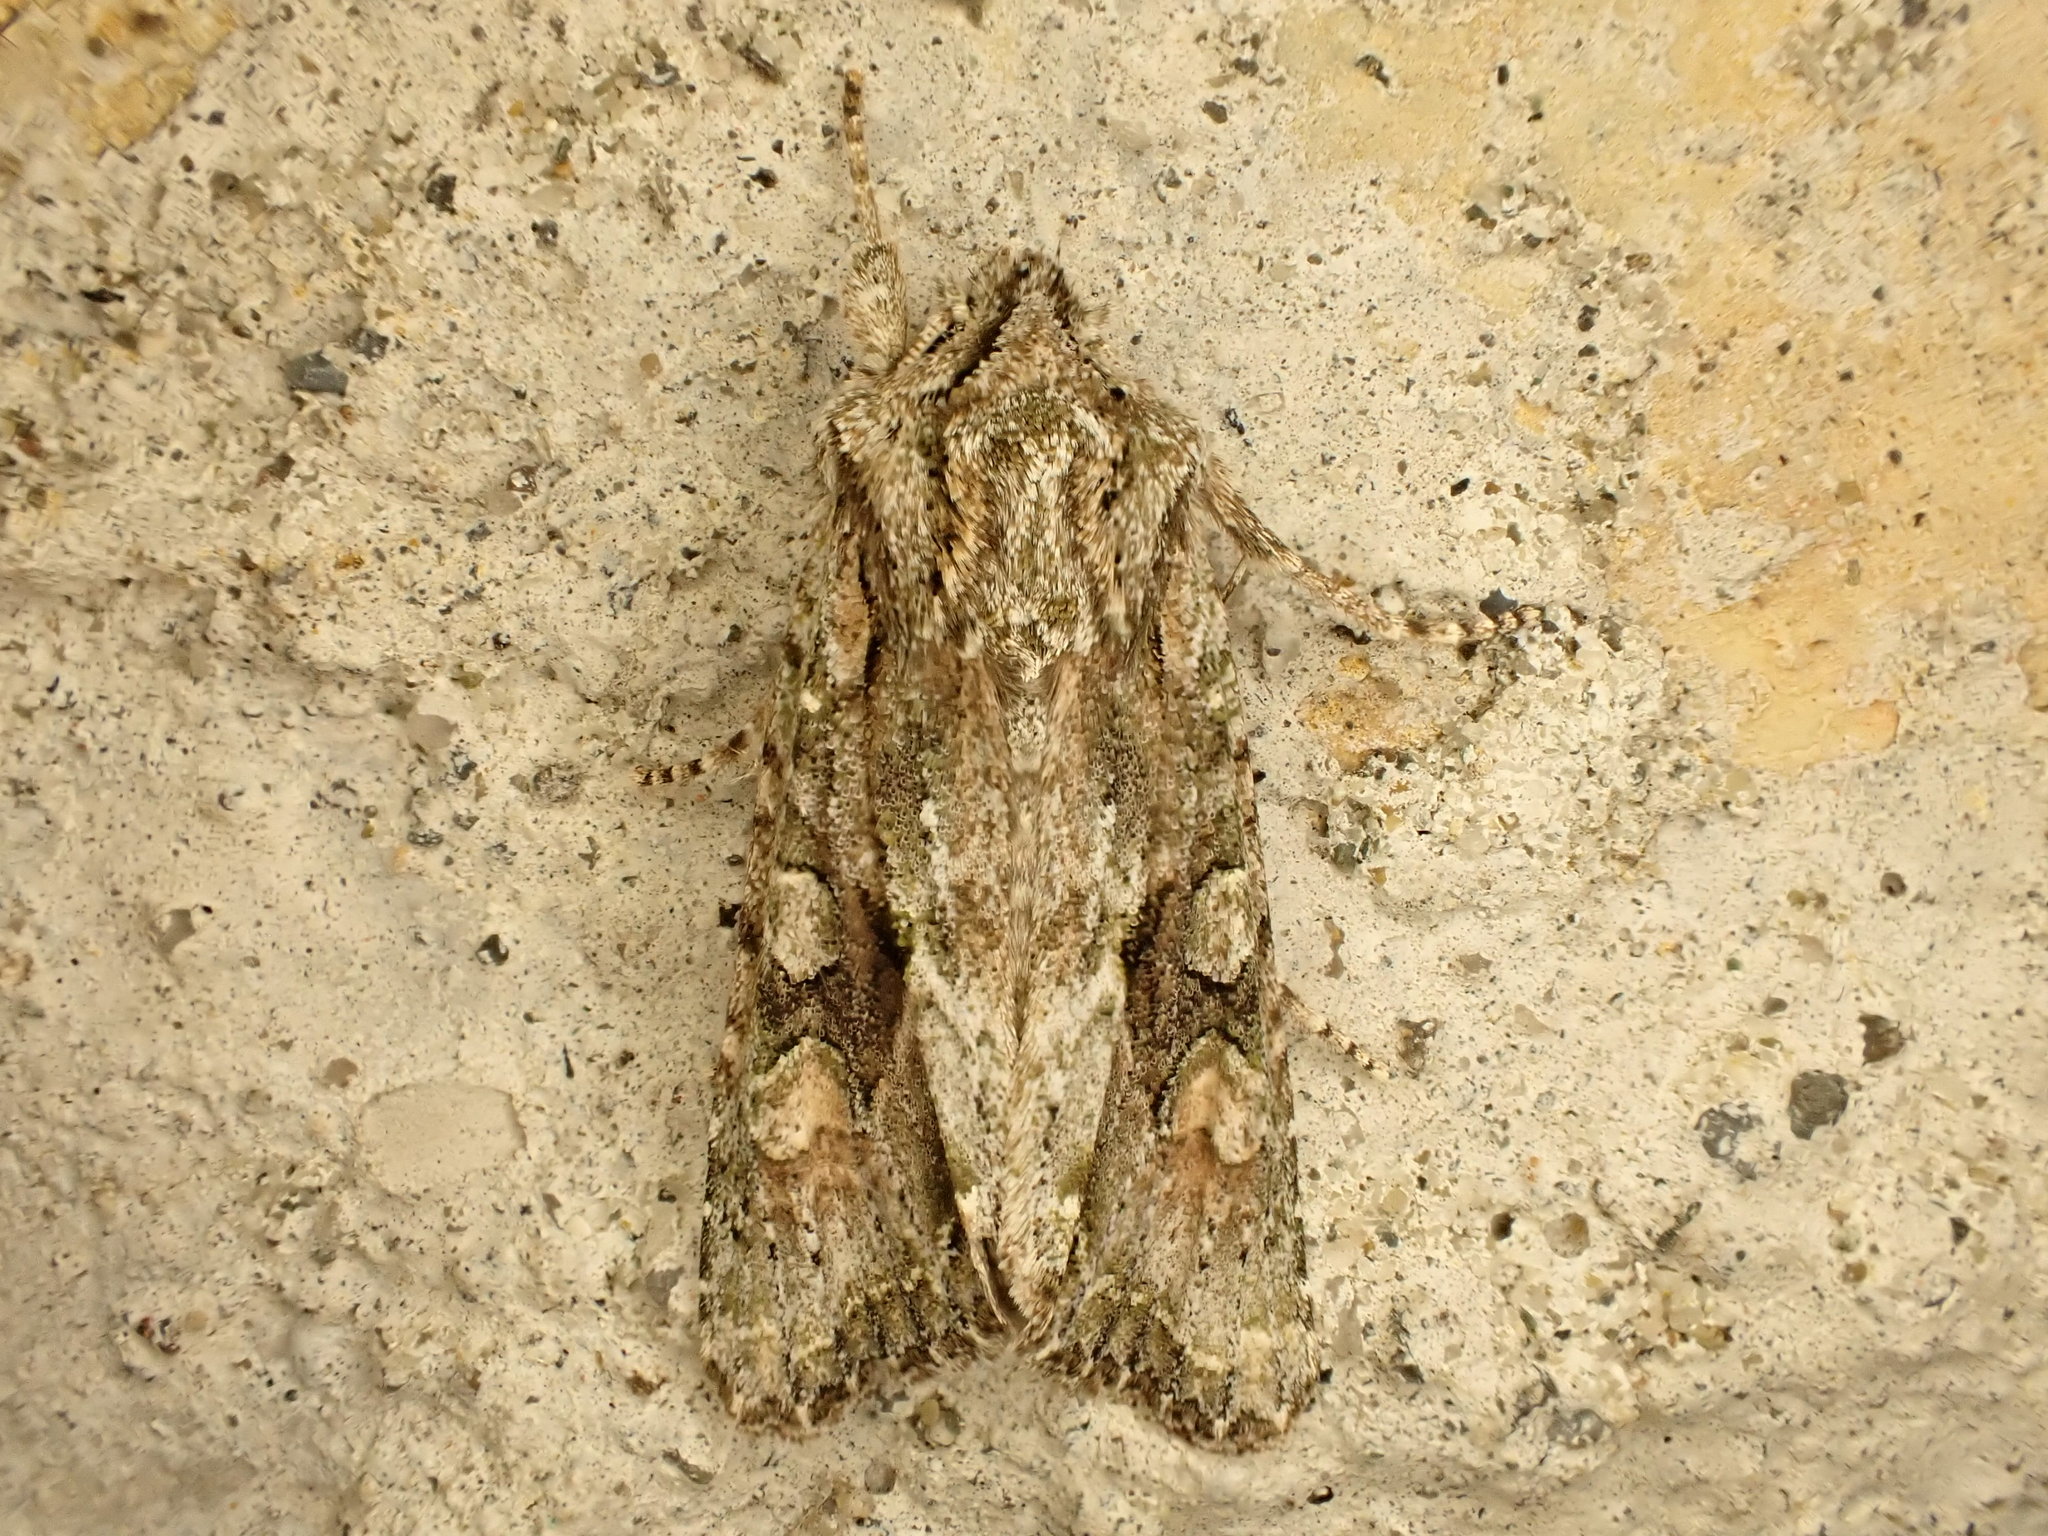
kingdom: Animalia
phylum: Arthropoda
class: Insecta
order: Lepidoptera
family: Noctuidae
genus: Ichneutica
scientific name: Ichneutica mutans
